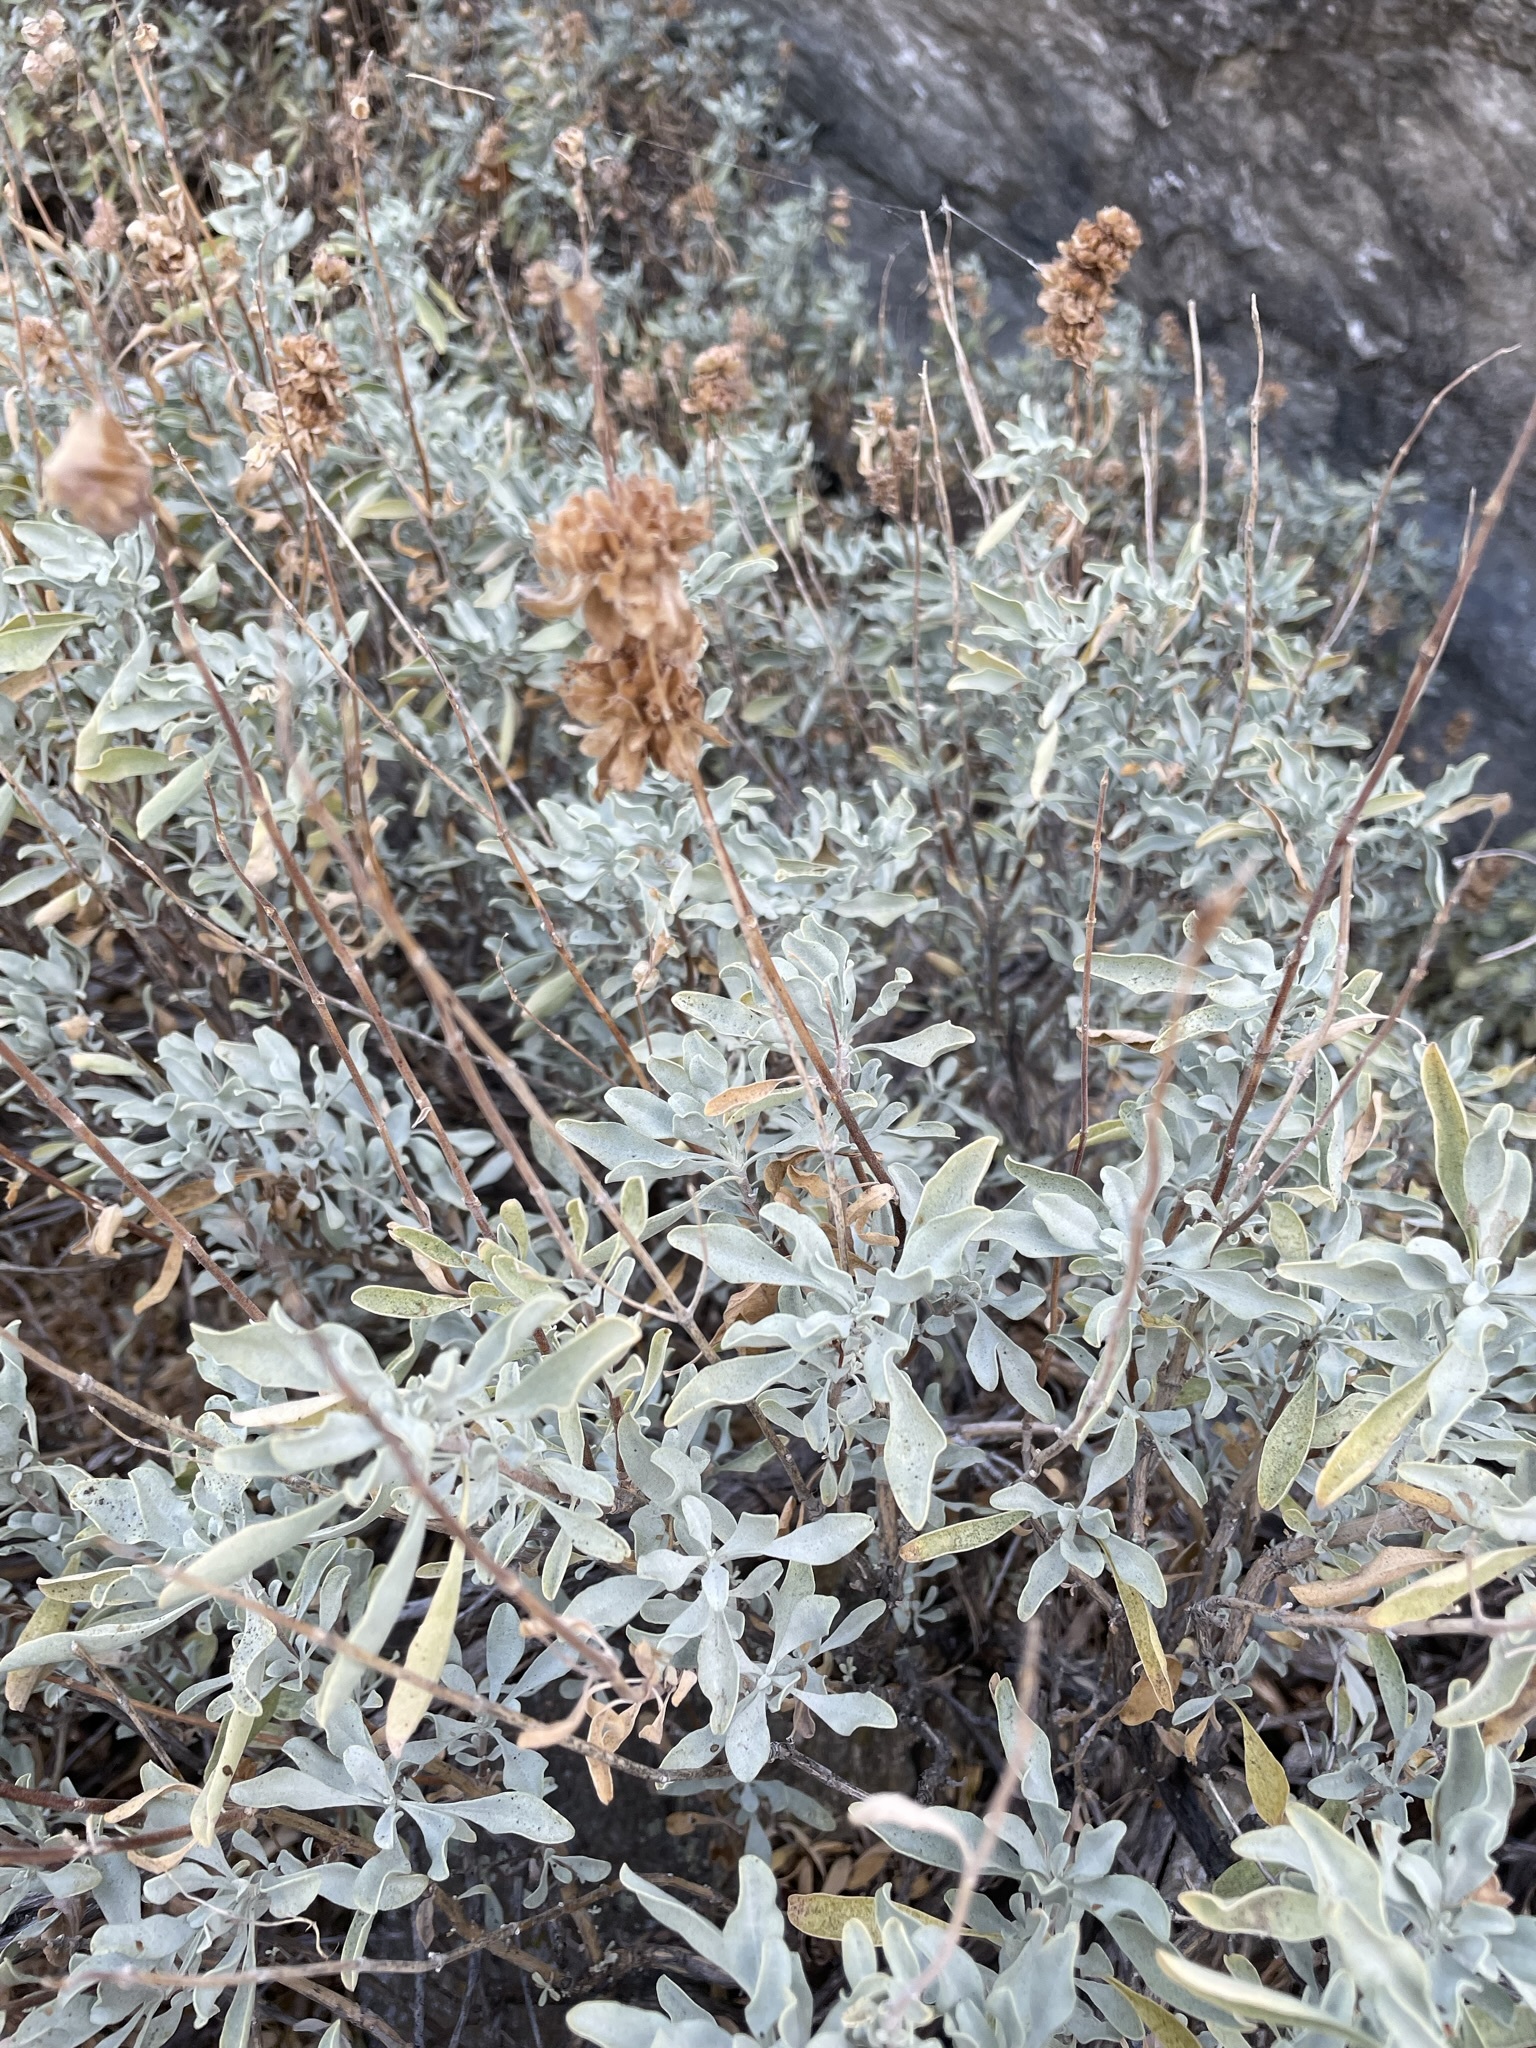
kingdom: Plantae
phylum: Tracheophyta
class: Magnoliopsida
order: Lamiales
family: Lamiaceae
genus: Salvia
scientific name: Salvia dorrii
